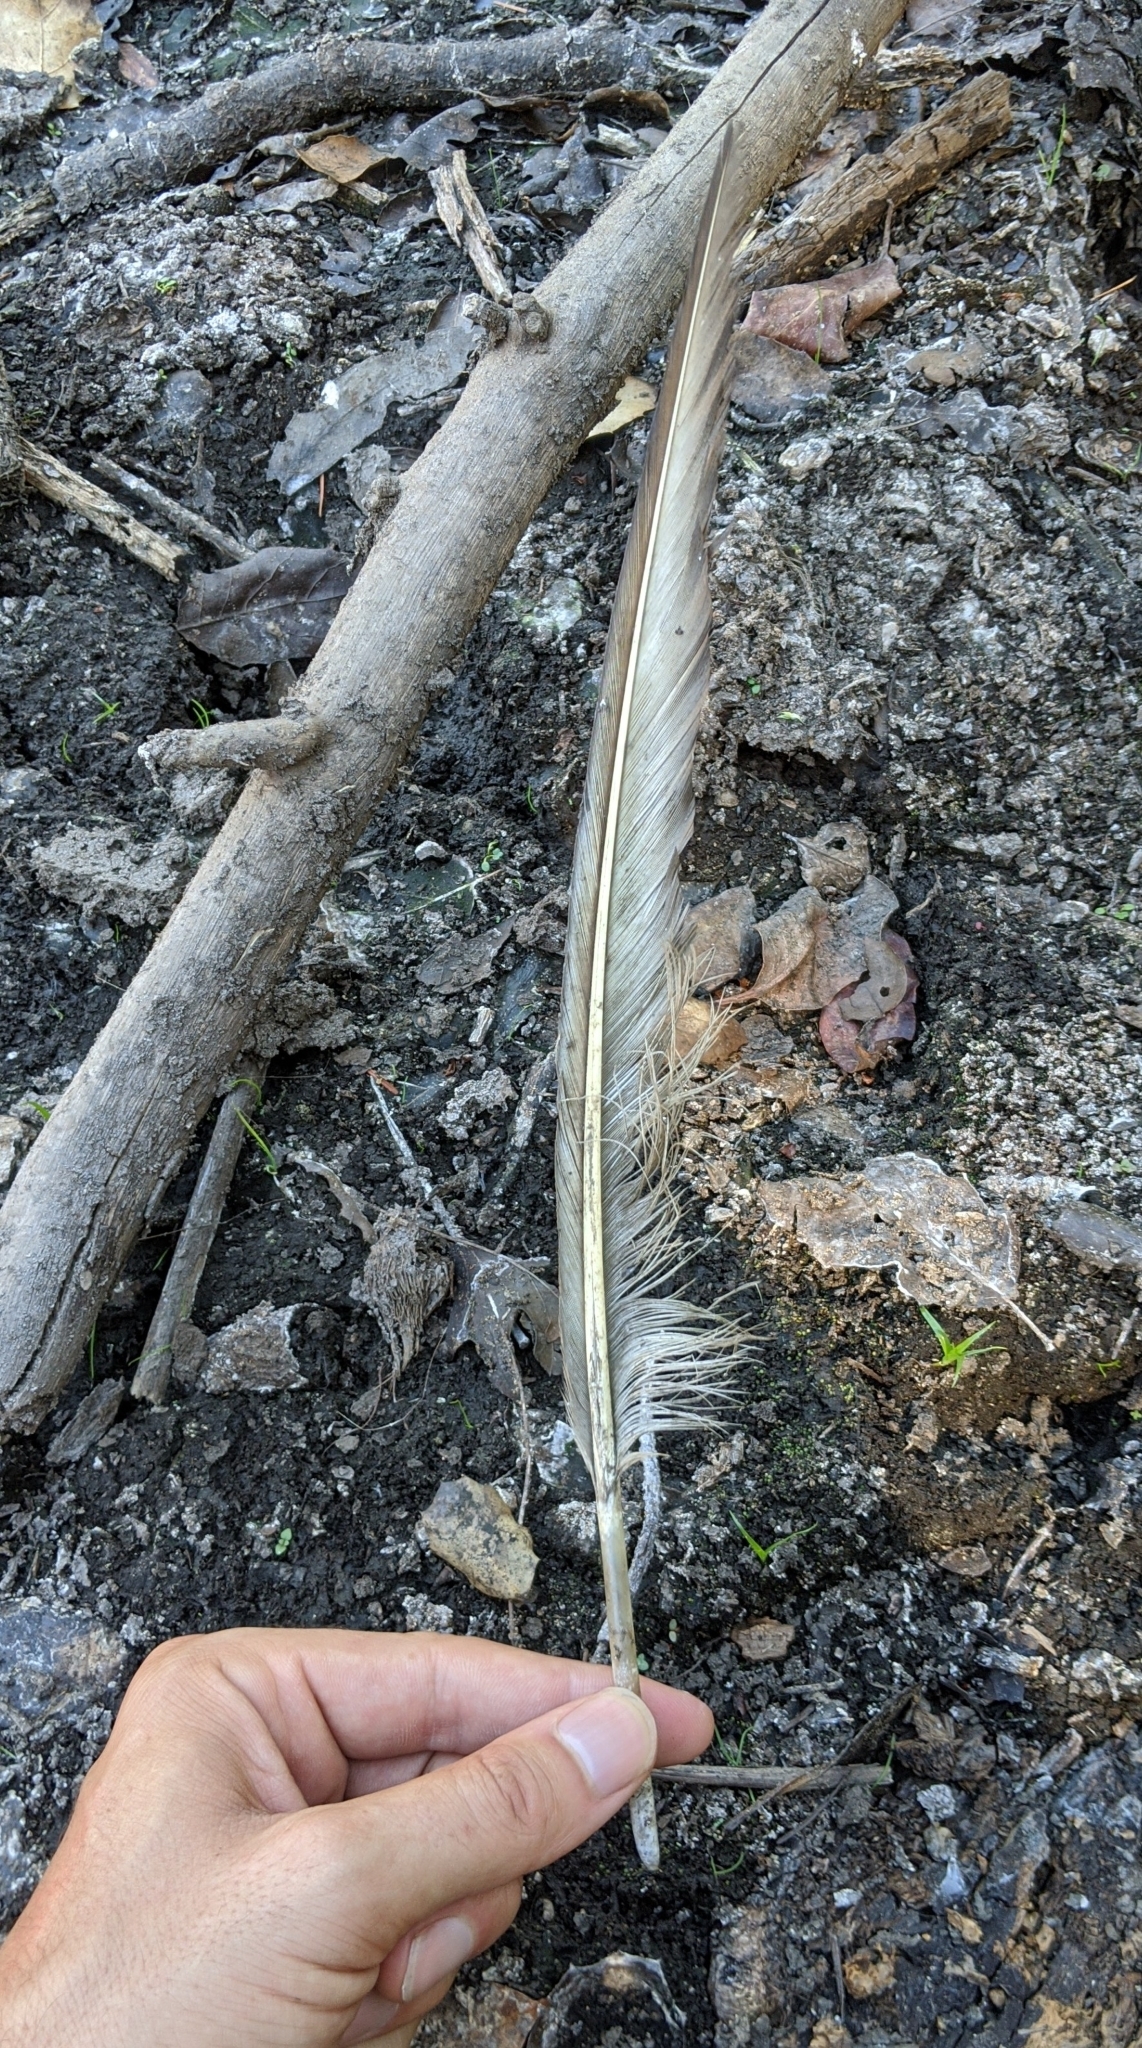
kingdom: Animalia
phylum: Chordata
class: Aves
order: Accipitriformes
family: Cathartidae
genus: Cathartes
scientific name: Cathartes aura
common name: Turkey vulture
